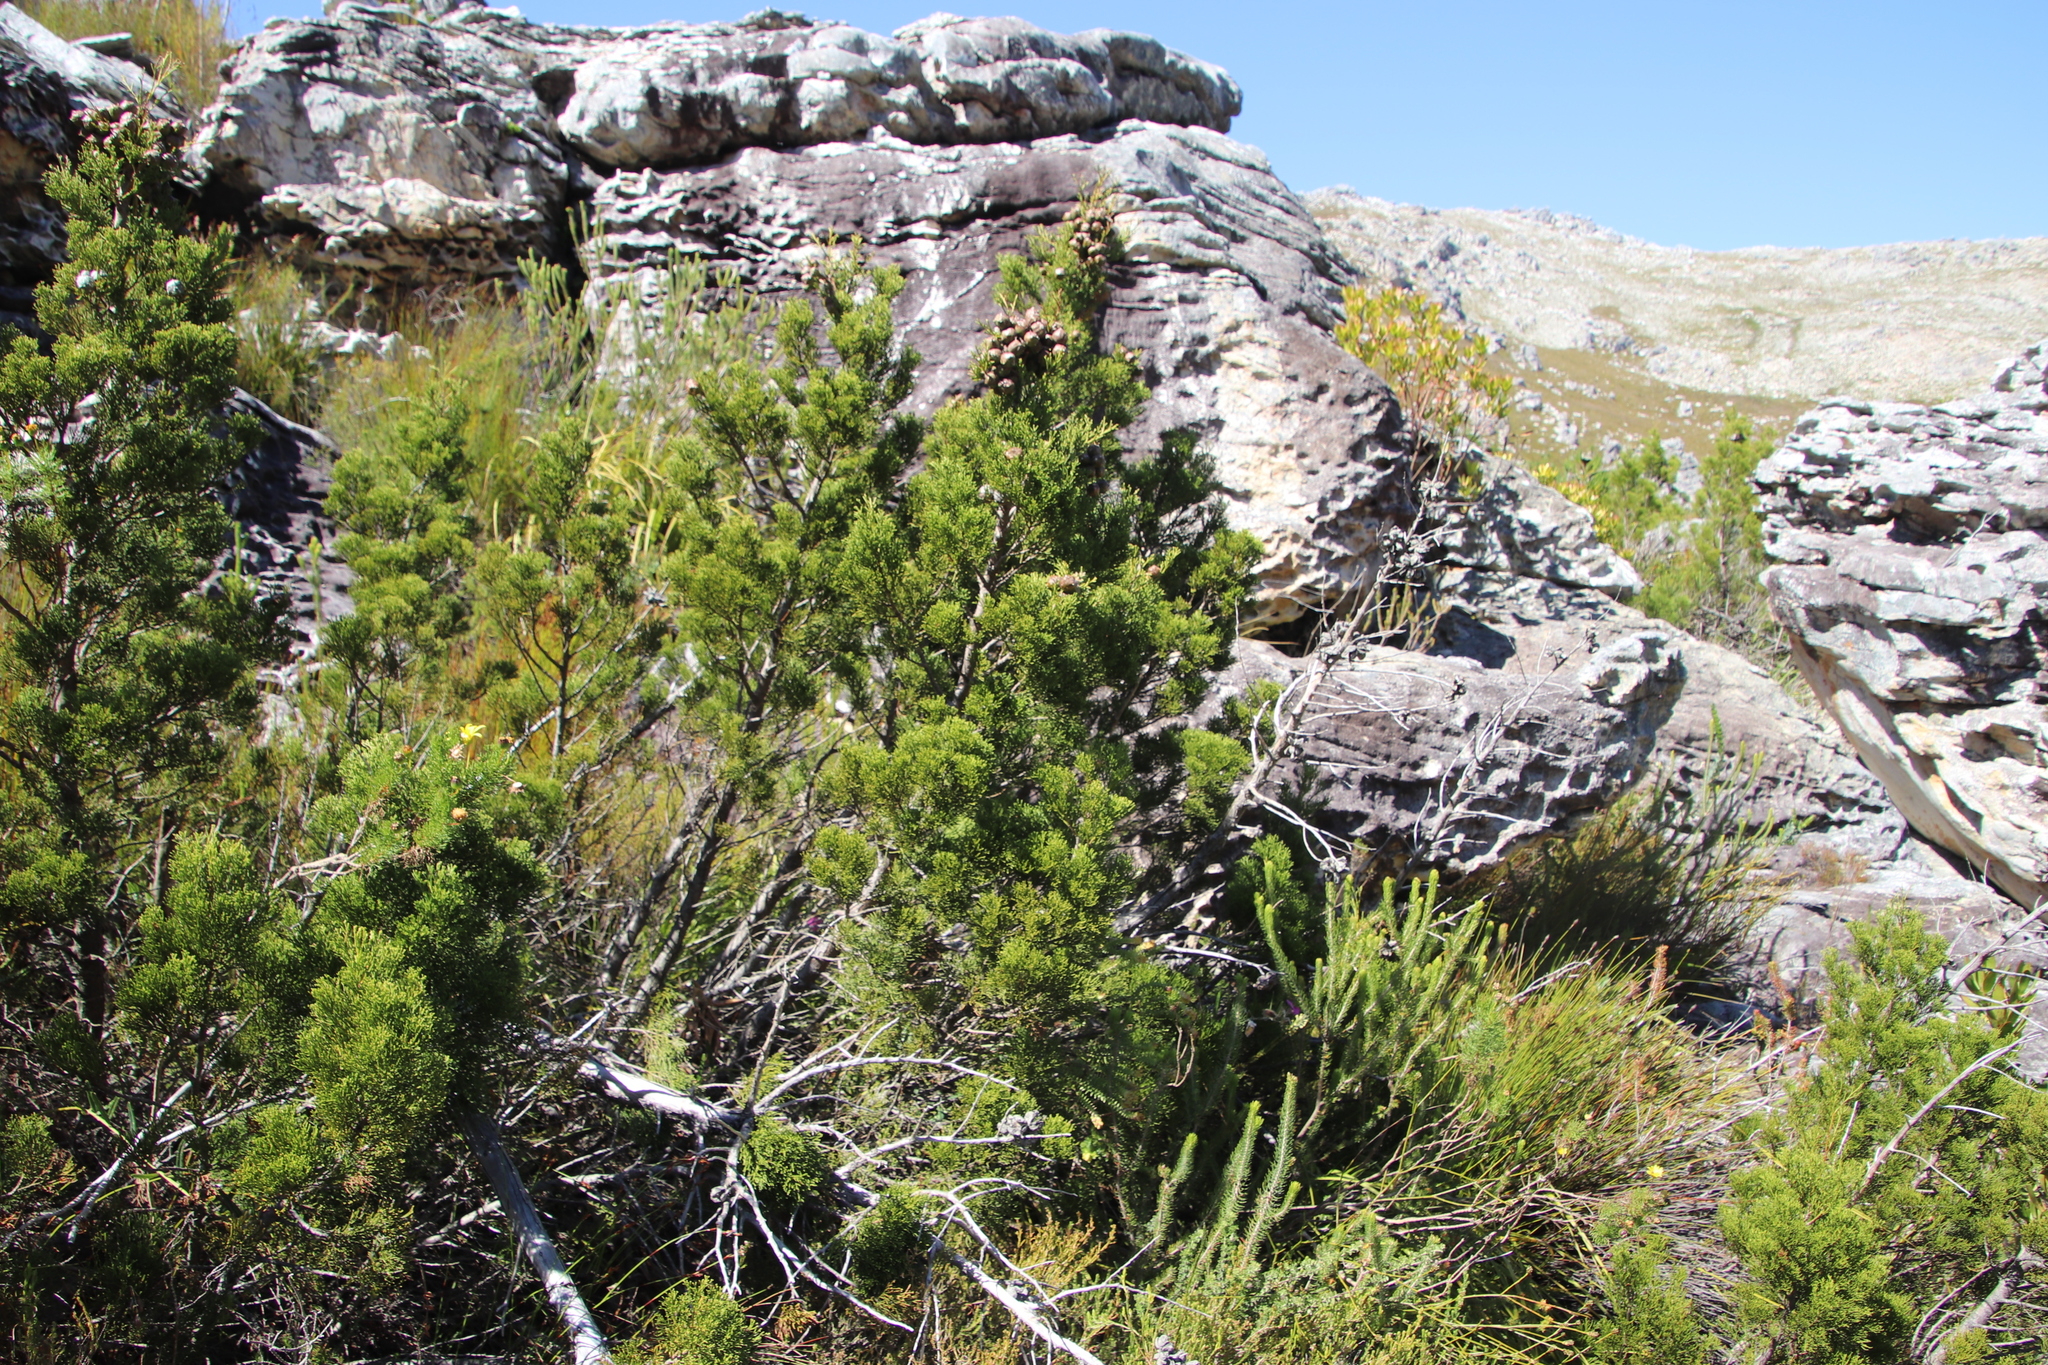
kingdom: Plantae
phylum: Tracheophyta
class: Pinopsida
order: Pinales
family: Cupressaceae
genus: Widdringtonia
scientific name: Widdringtonia nodiflora
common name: Cape cypress
